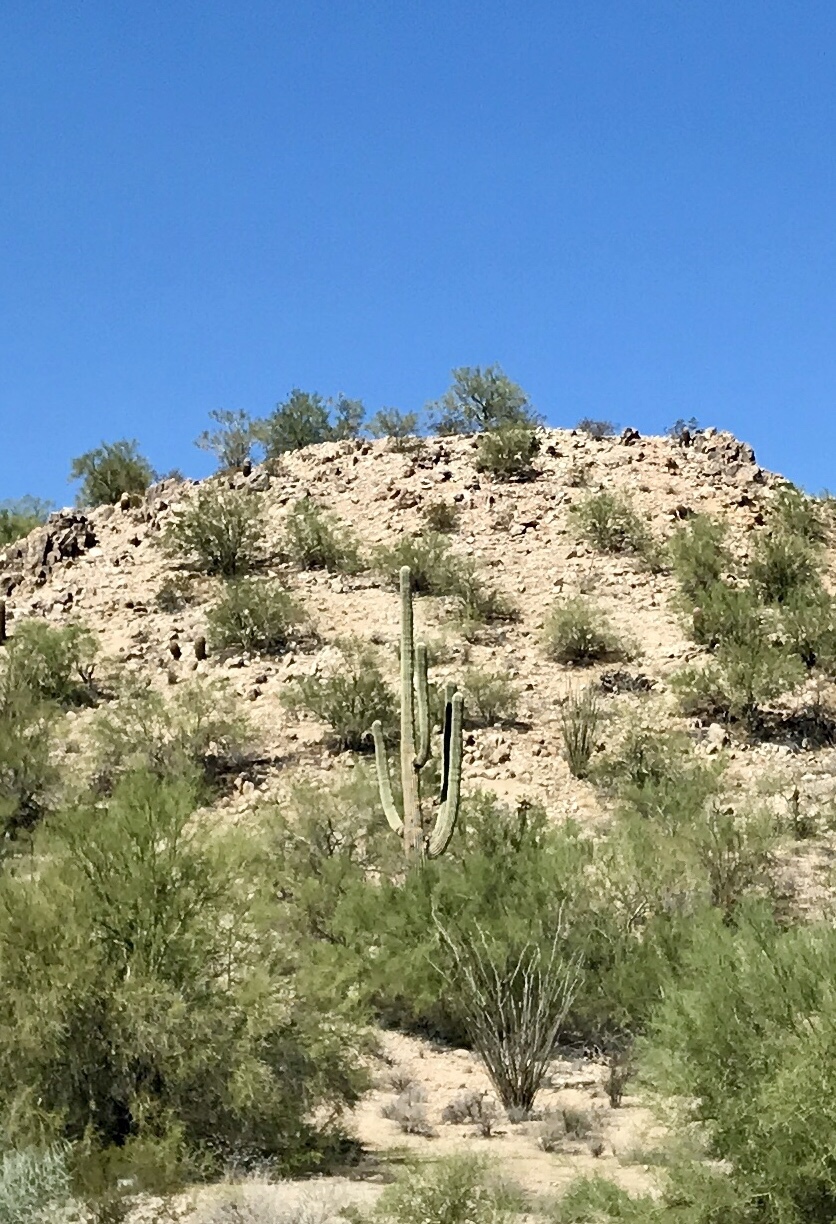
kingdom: Plantae
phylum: Tracheophyta
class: Magnoliopsida
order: Caryophyllales
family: Cactaceae
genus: Carnegiea
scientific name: Carnegiea gigantea
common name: Saguaro
